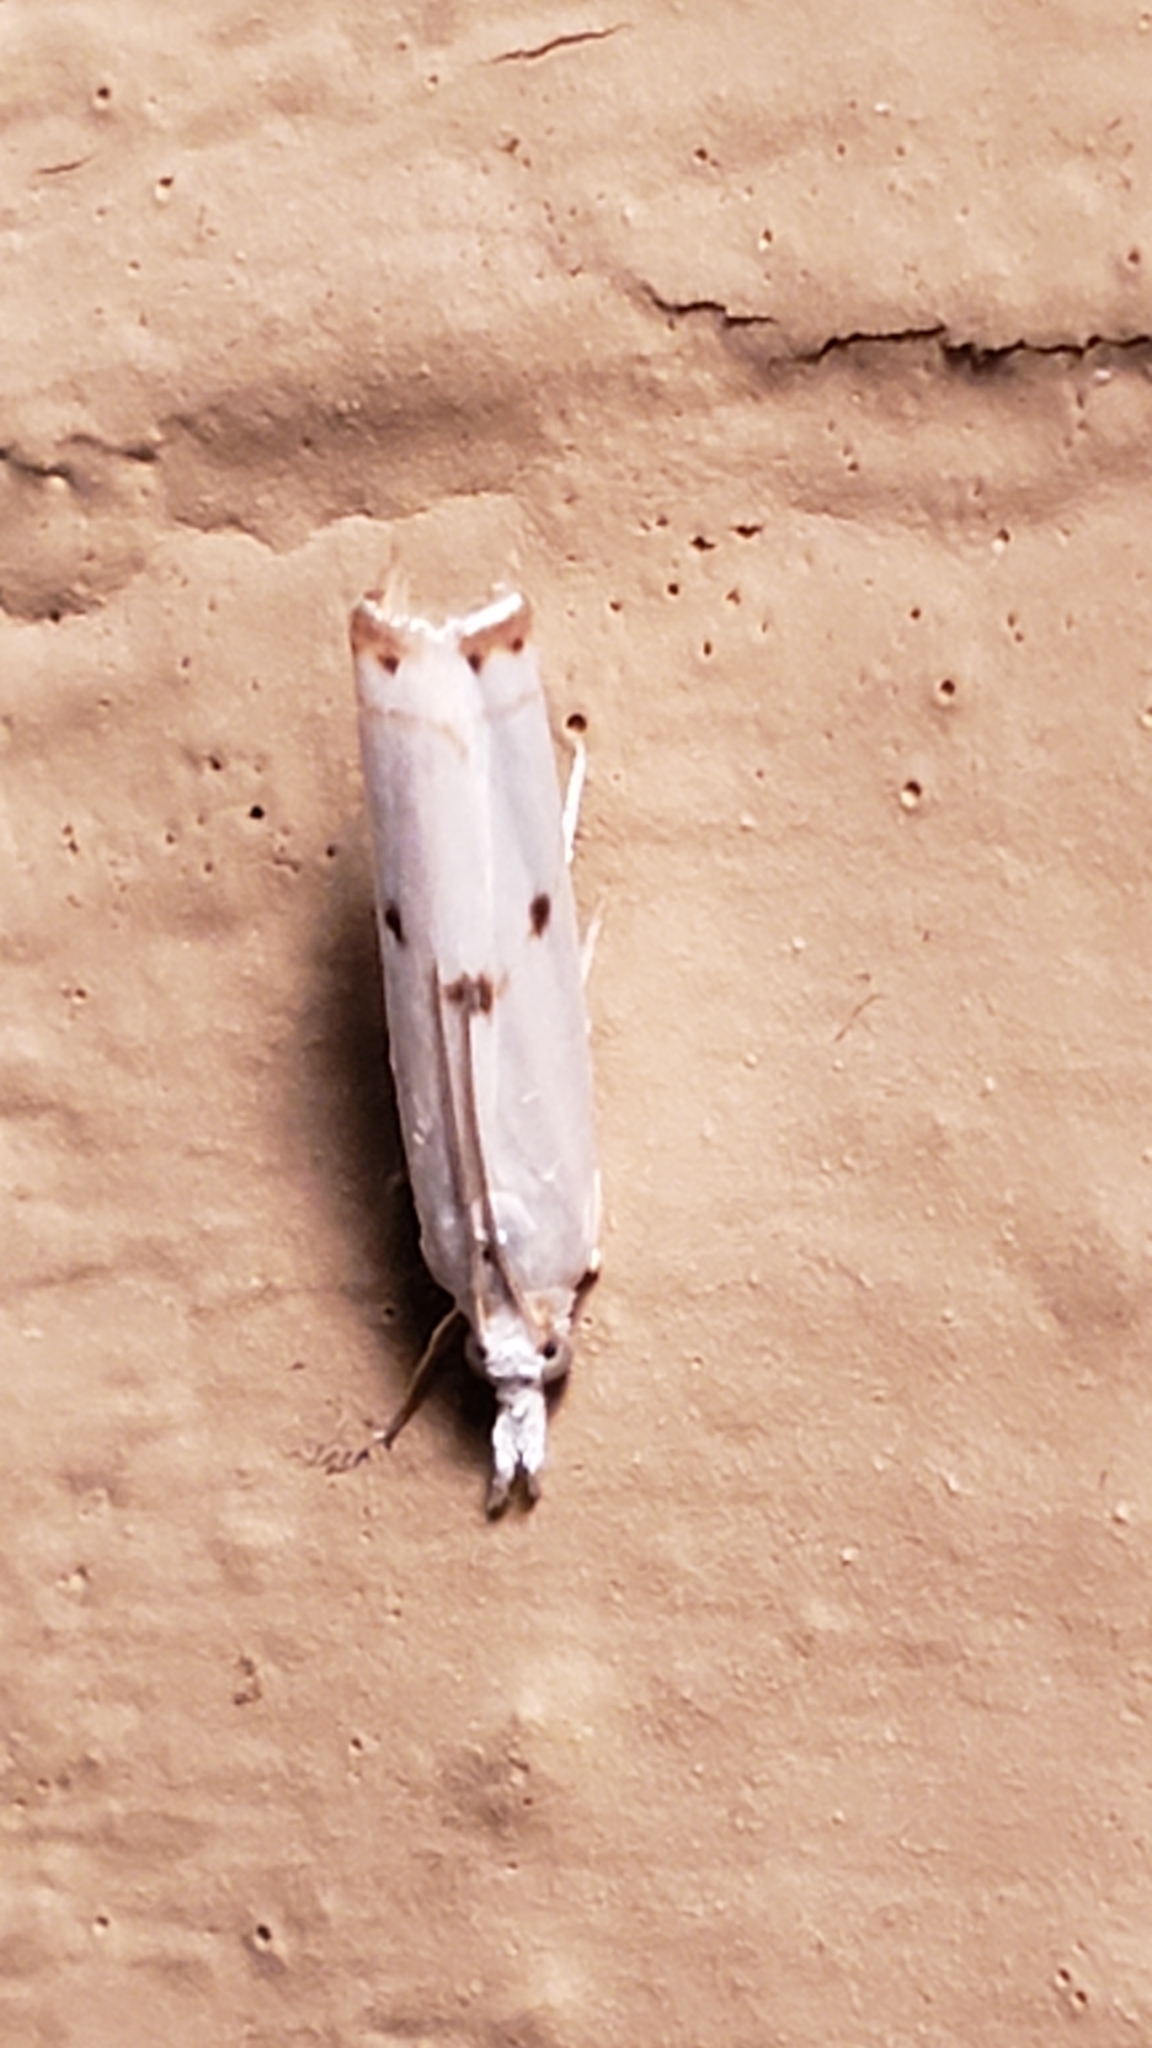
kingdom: Animalia
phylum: Arthropoda
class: Insecta
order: Lepidoptera
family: Crambidae
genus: Microcrambus
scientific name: Microcrambus biguttellus
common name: Gold-stripe grass-veneer moth
